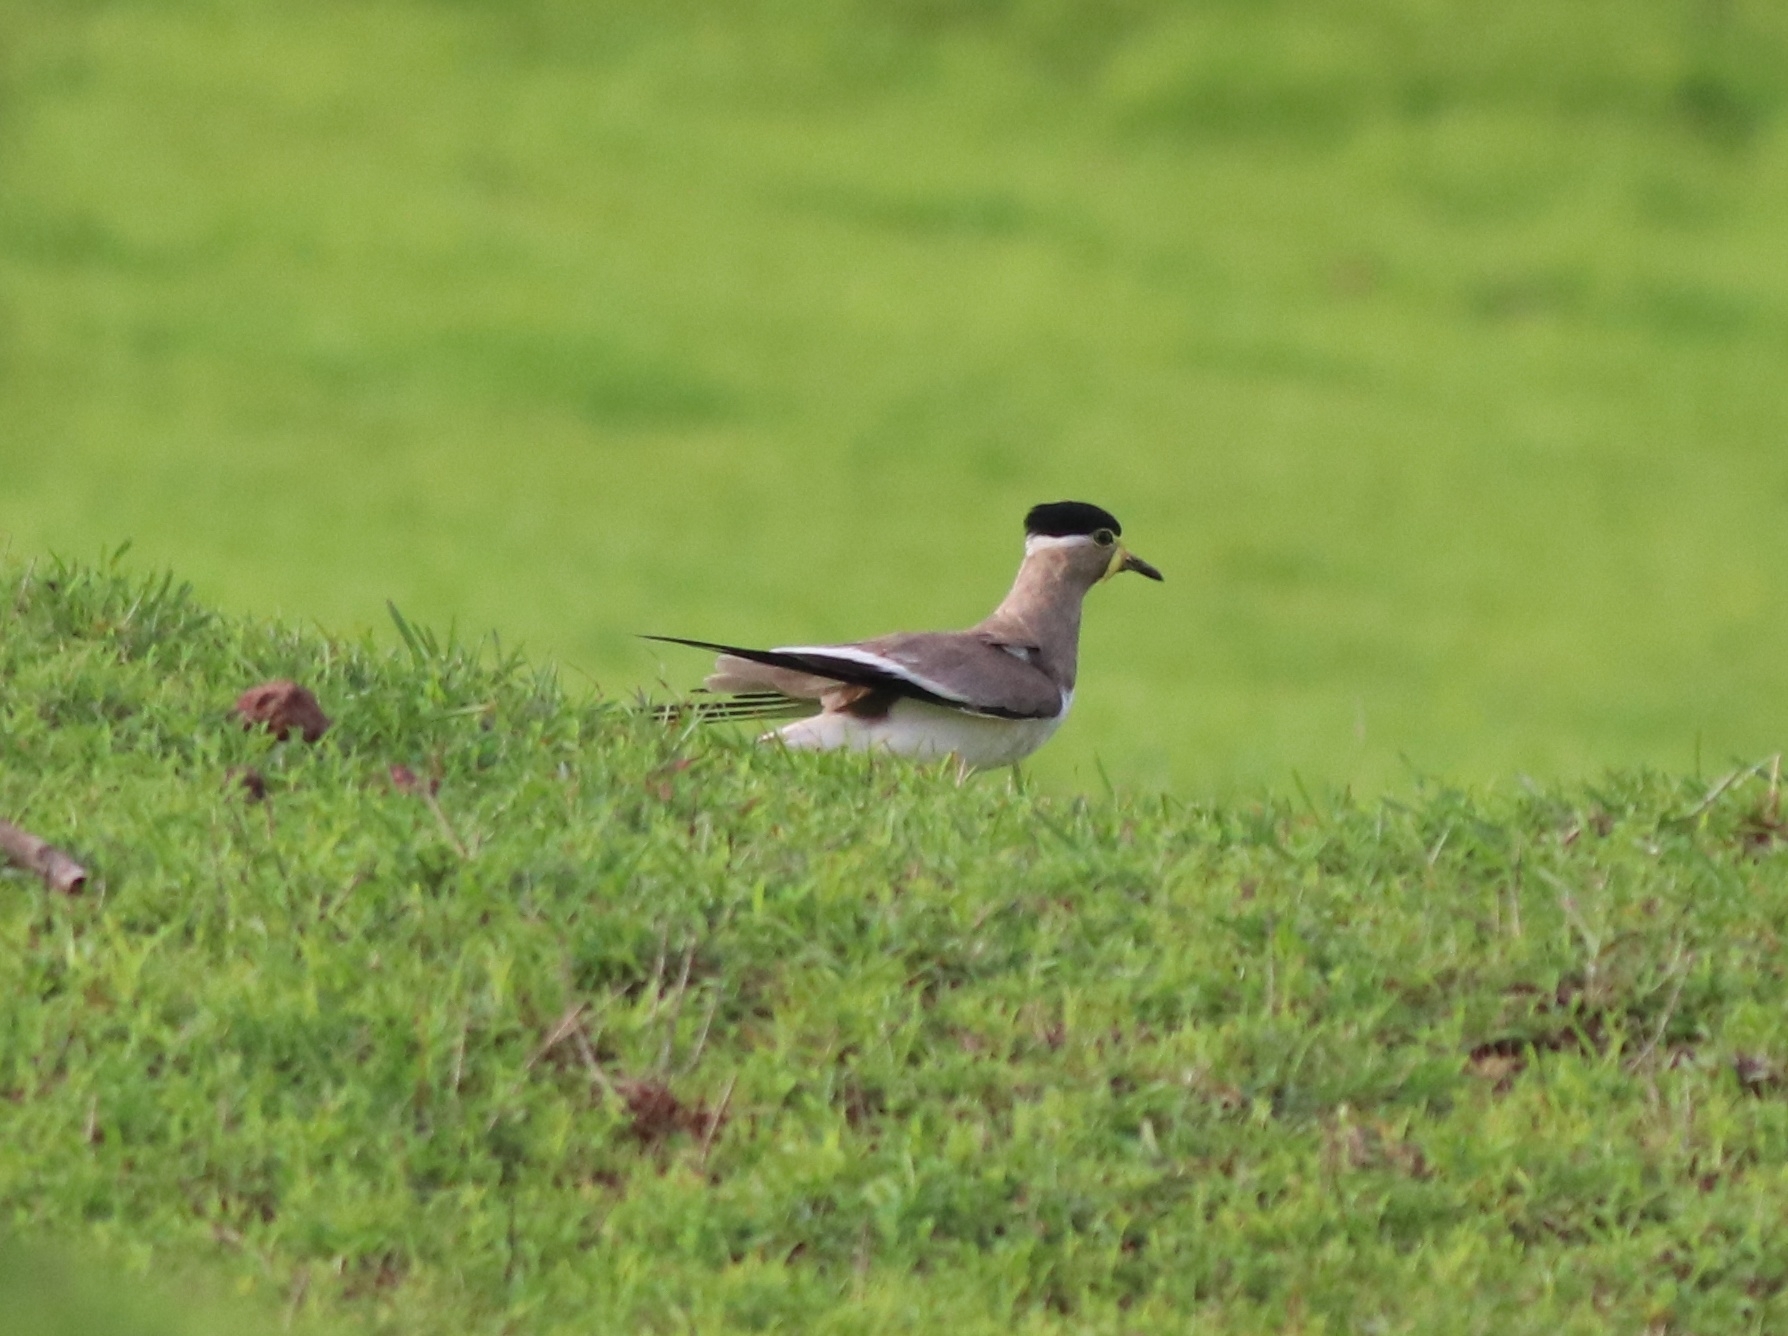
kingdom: Animalia
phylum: Chordata
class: Aves
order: Charadriiformes
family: Charadriidae
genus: Vanellus
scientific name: Vanellus malabaricus
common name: Yellow-wattled lapwing
